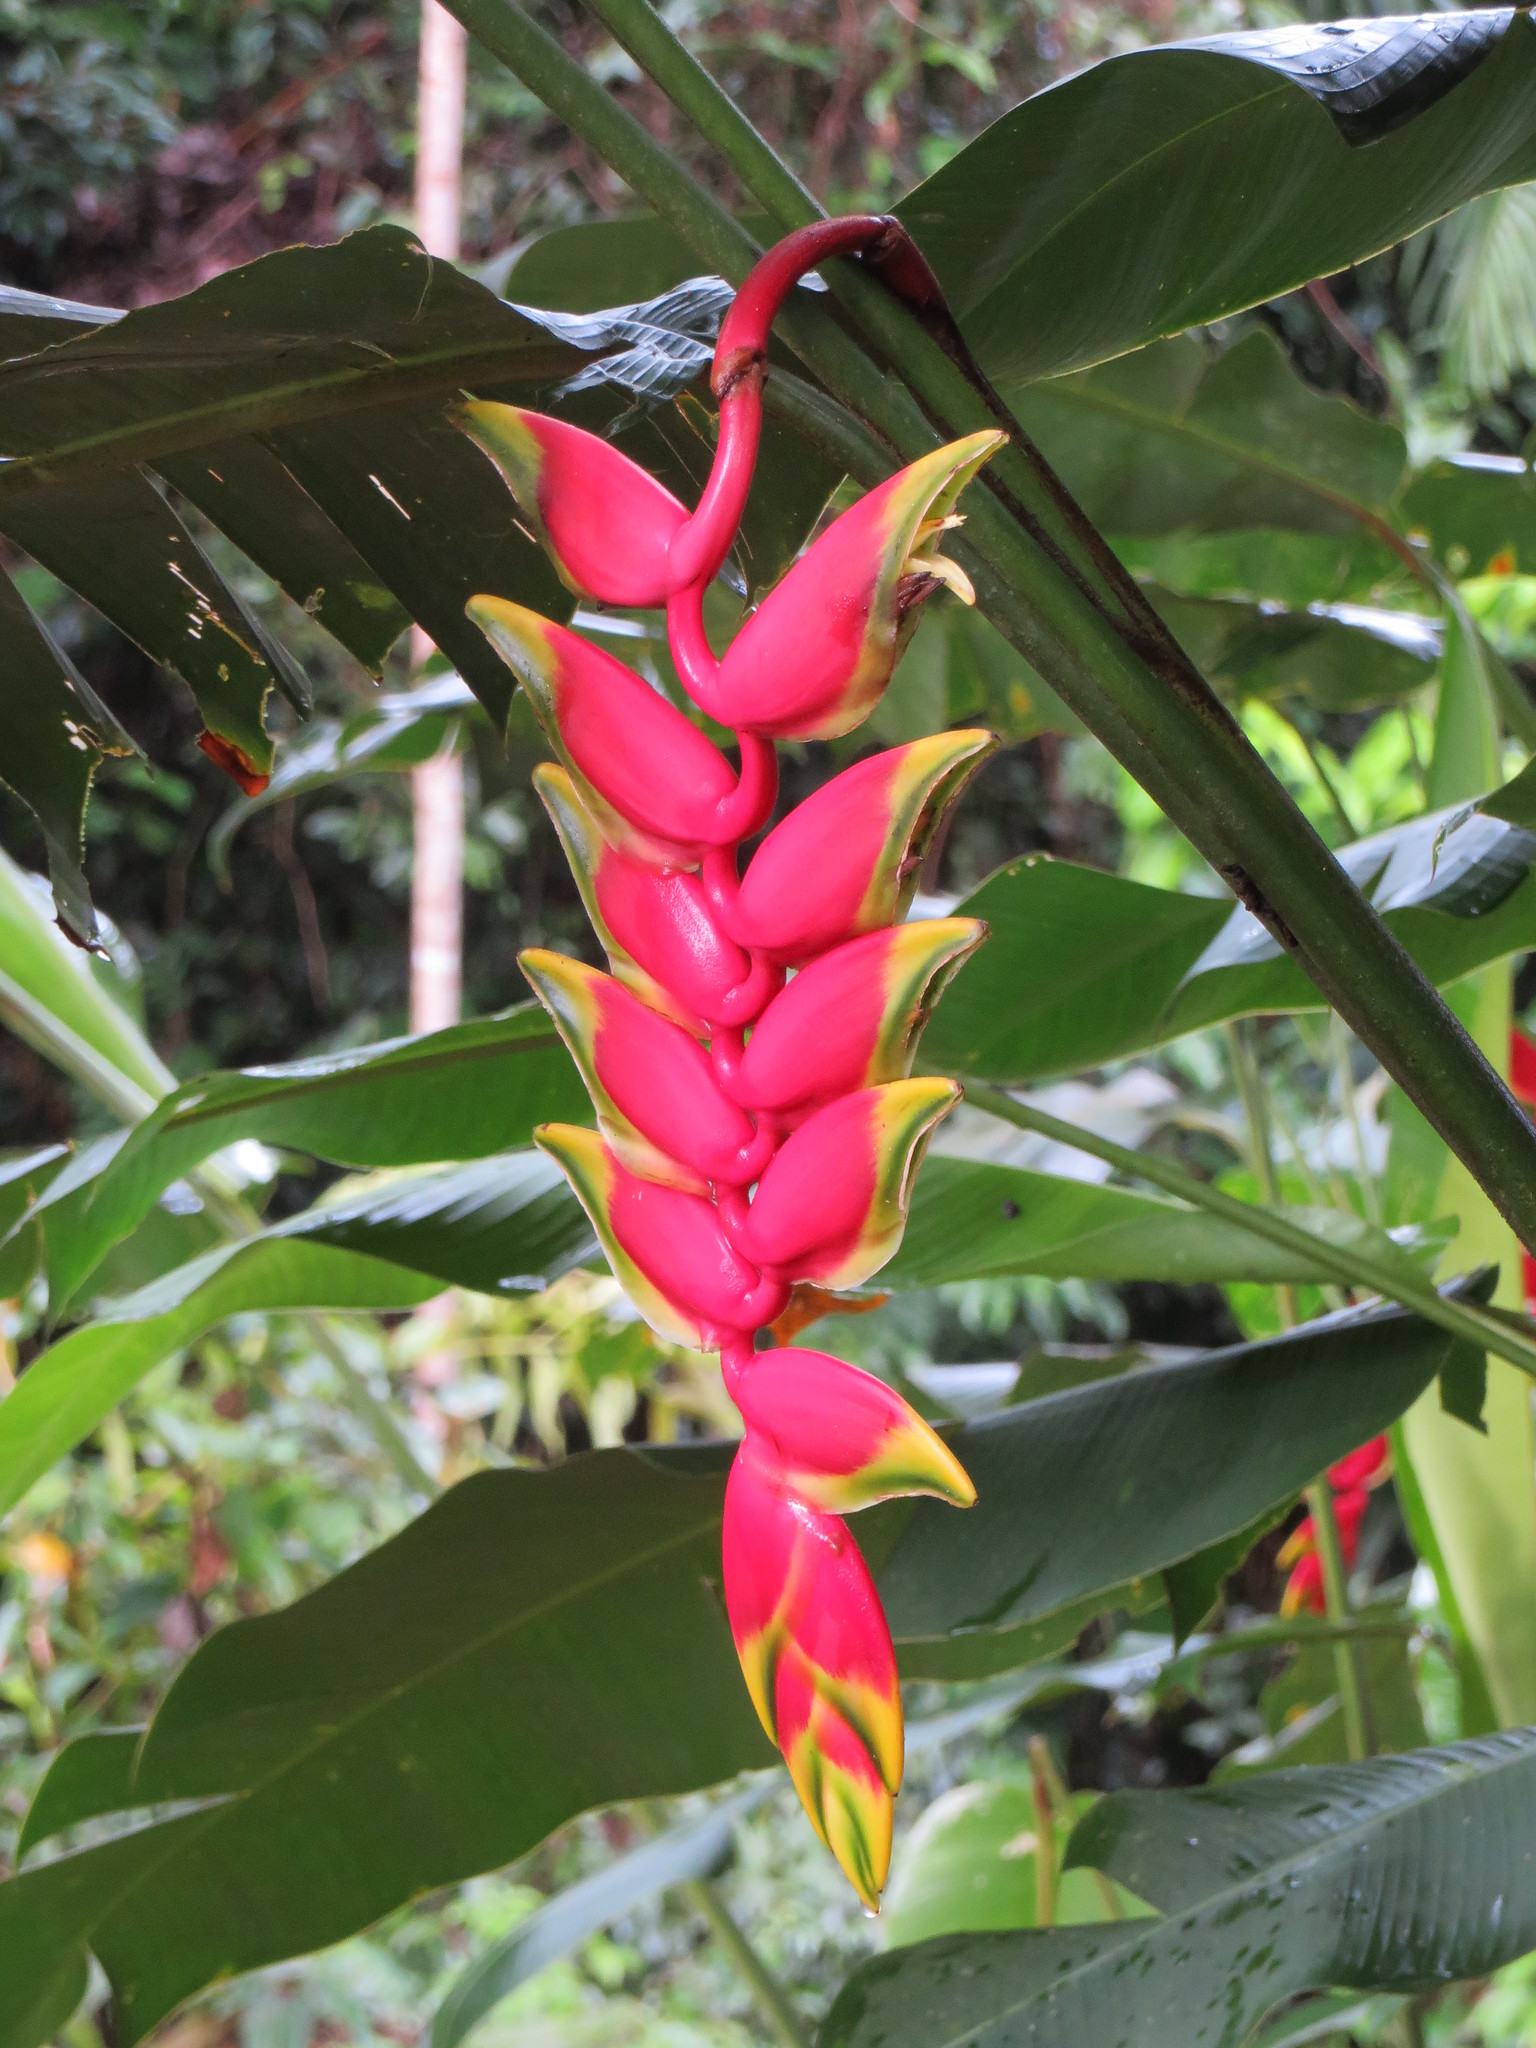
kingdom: Plantae
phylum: Tracheophyta
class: Liliopsida
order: Zingiberales
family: Heliconiaceae
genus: Heliconia
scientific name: Heliconia rostrata
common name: False bird of paradise
